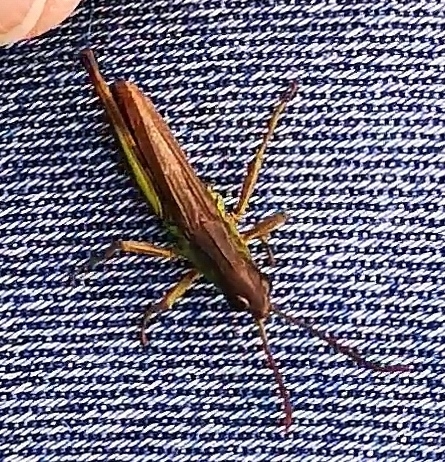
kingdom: Animalia
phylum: Arthropoda
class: Insecta
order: Orthoptera
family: Acrididae
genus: Pseudochorthippus
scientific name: Pseudochorthippus parallelus
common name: Meadow grasshopper
